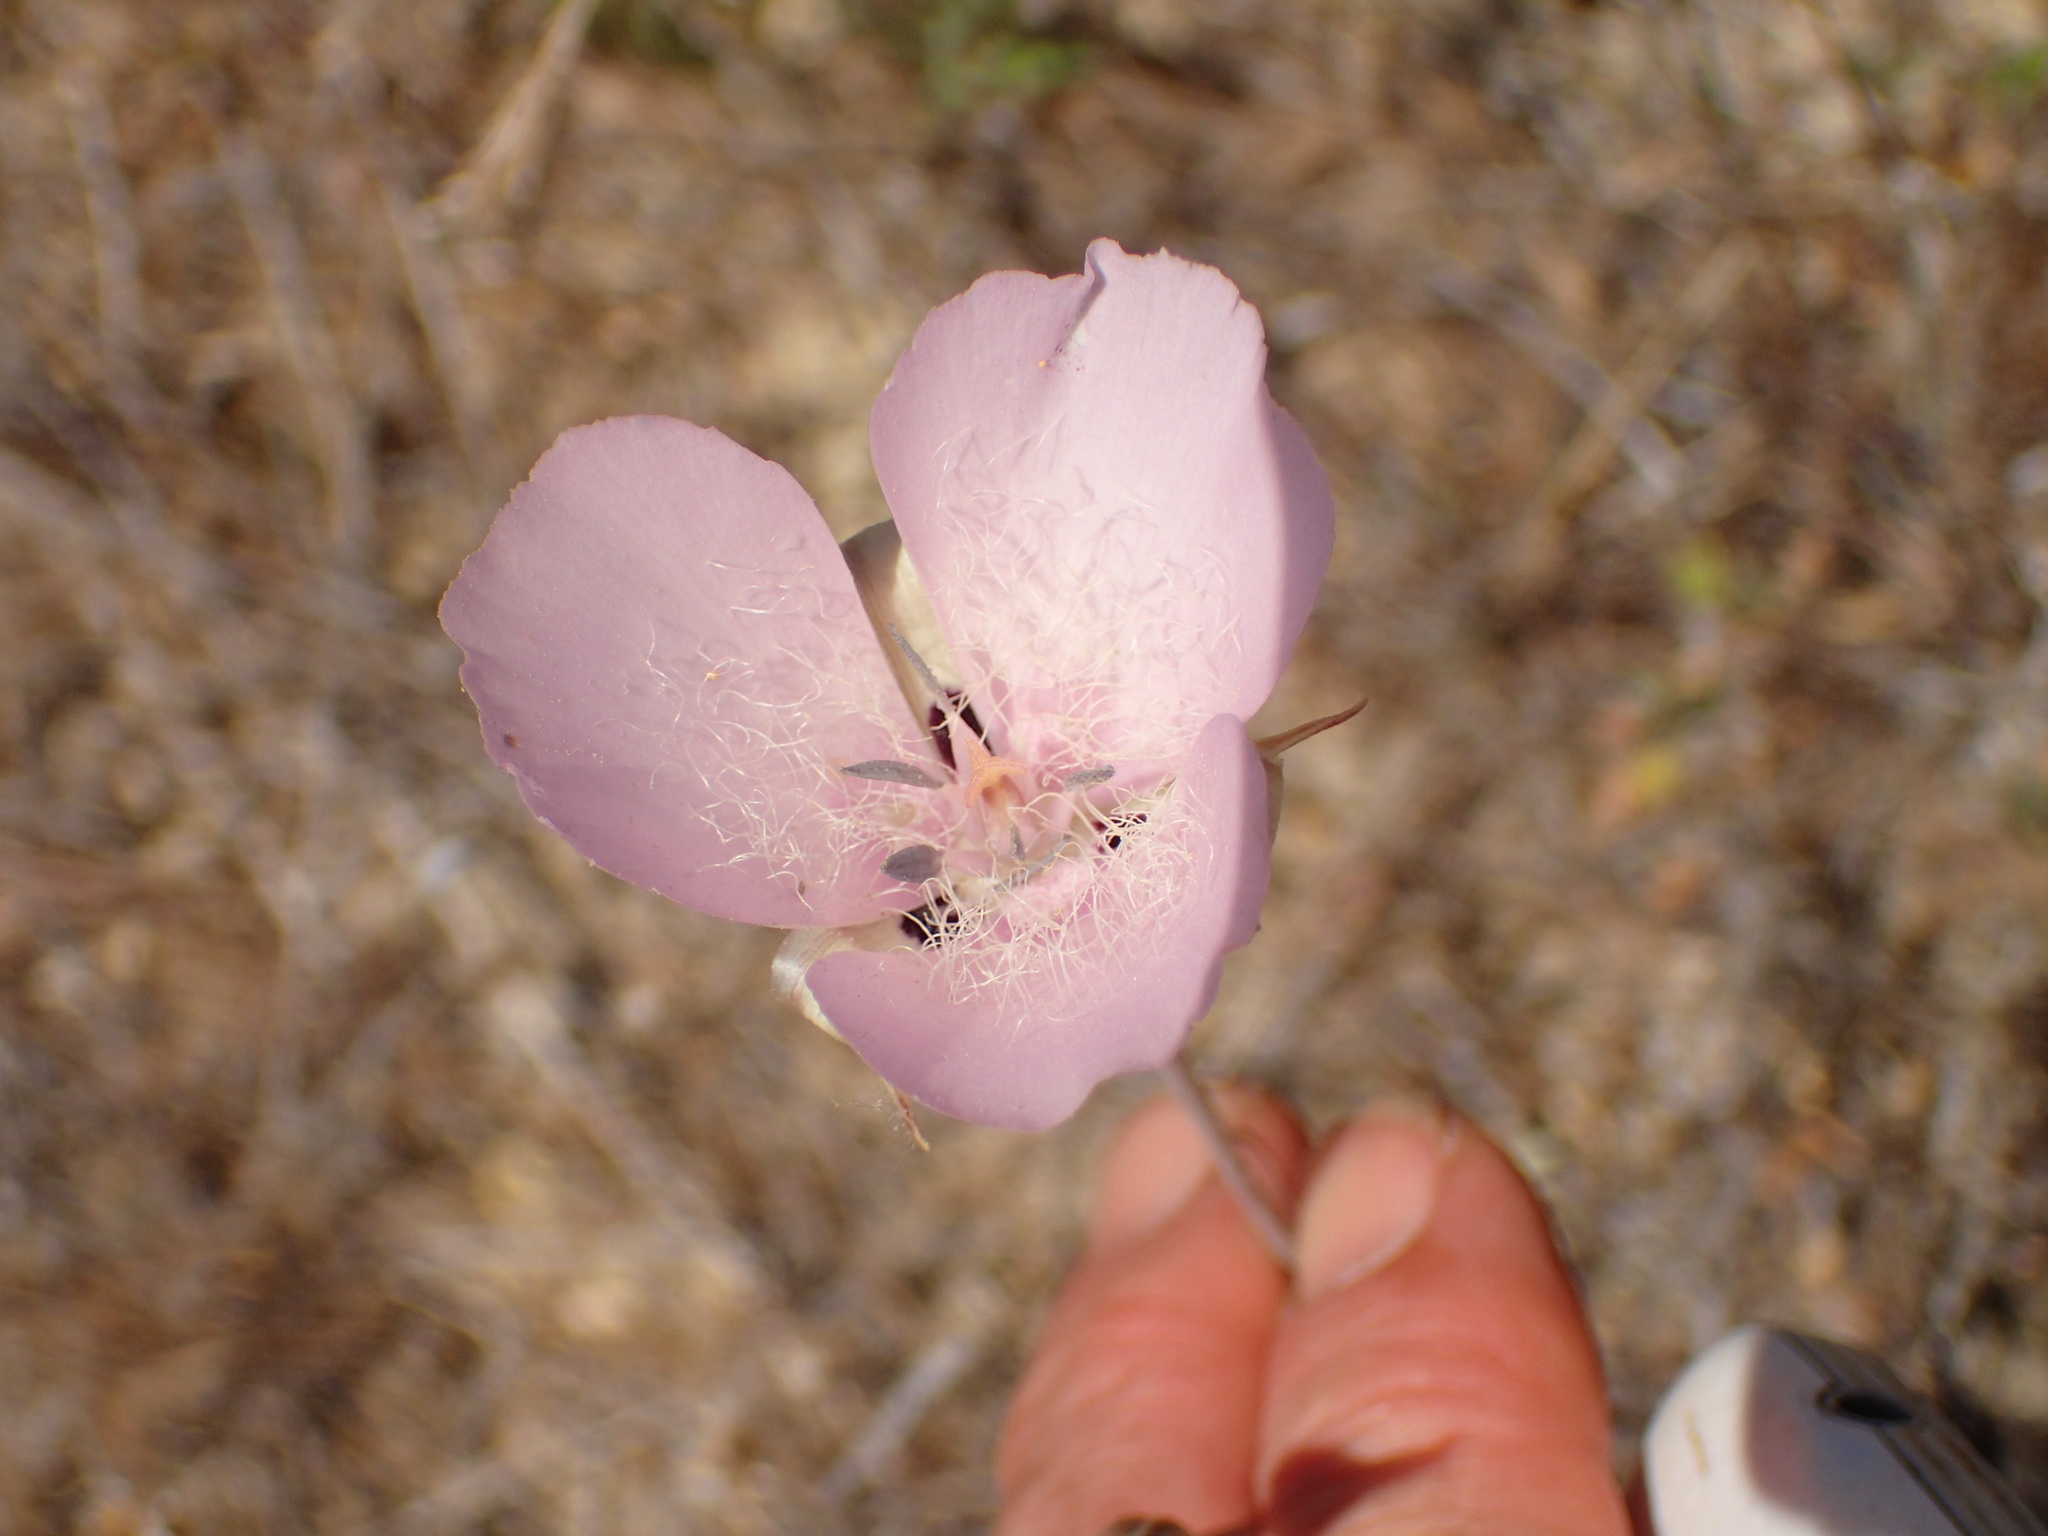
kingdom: Plantae
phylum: Tracheophyta
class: Liliopsida
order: Liliales
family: Liliaceae
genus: Calochortus
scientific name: Calochortus splendens
